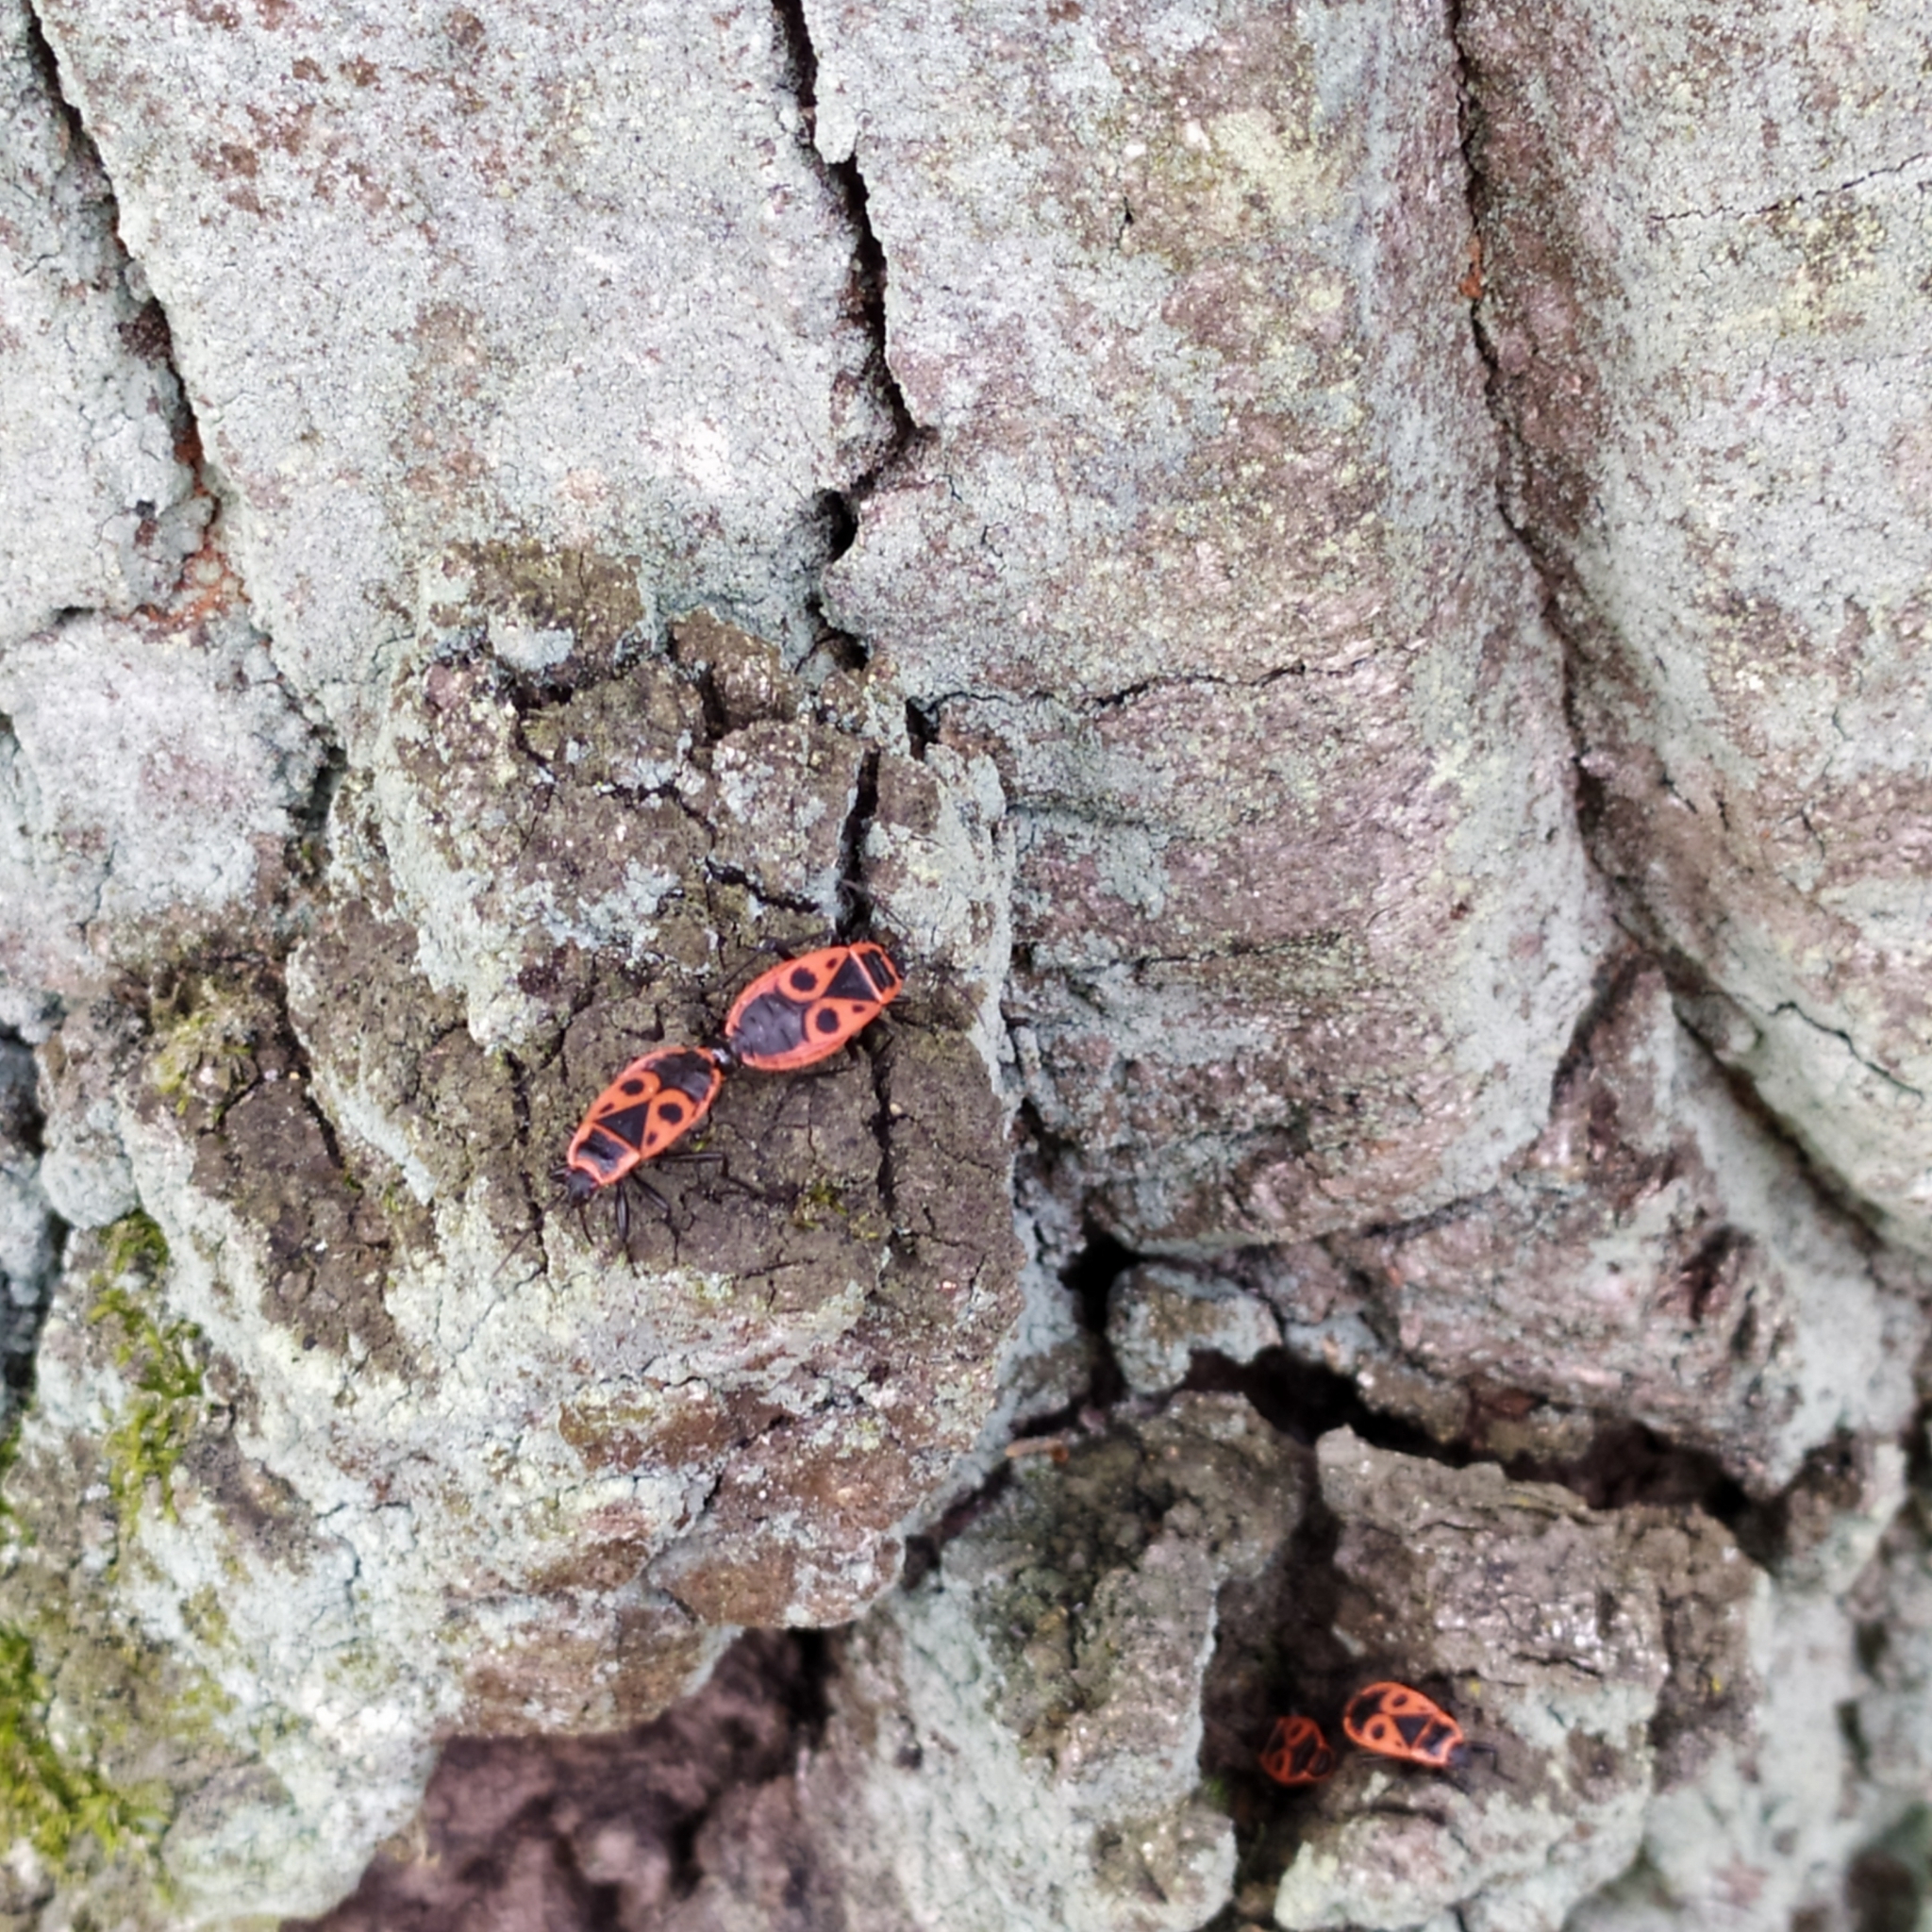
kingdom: Animalia
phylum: Arthropoda
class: Insecta
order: Hemiptera
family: Pyrrhocoridae
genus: Pyrrhocoris
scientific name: Pyrrhocoris apterus
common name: Firebug
